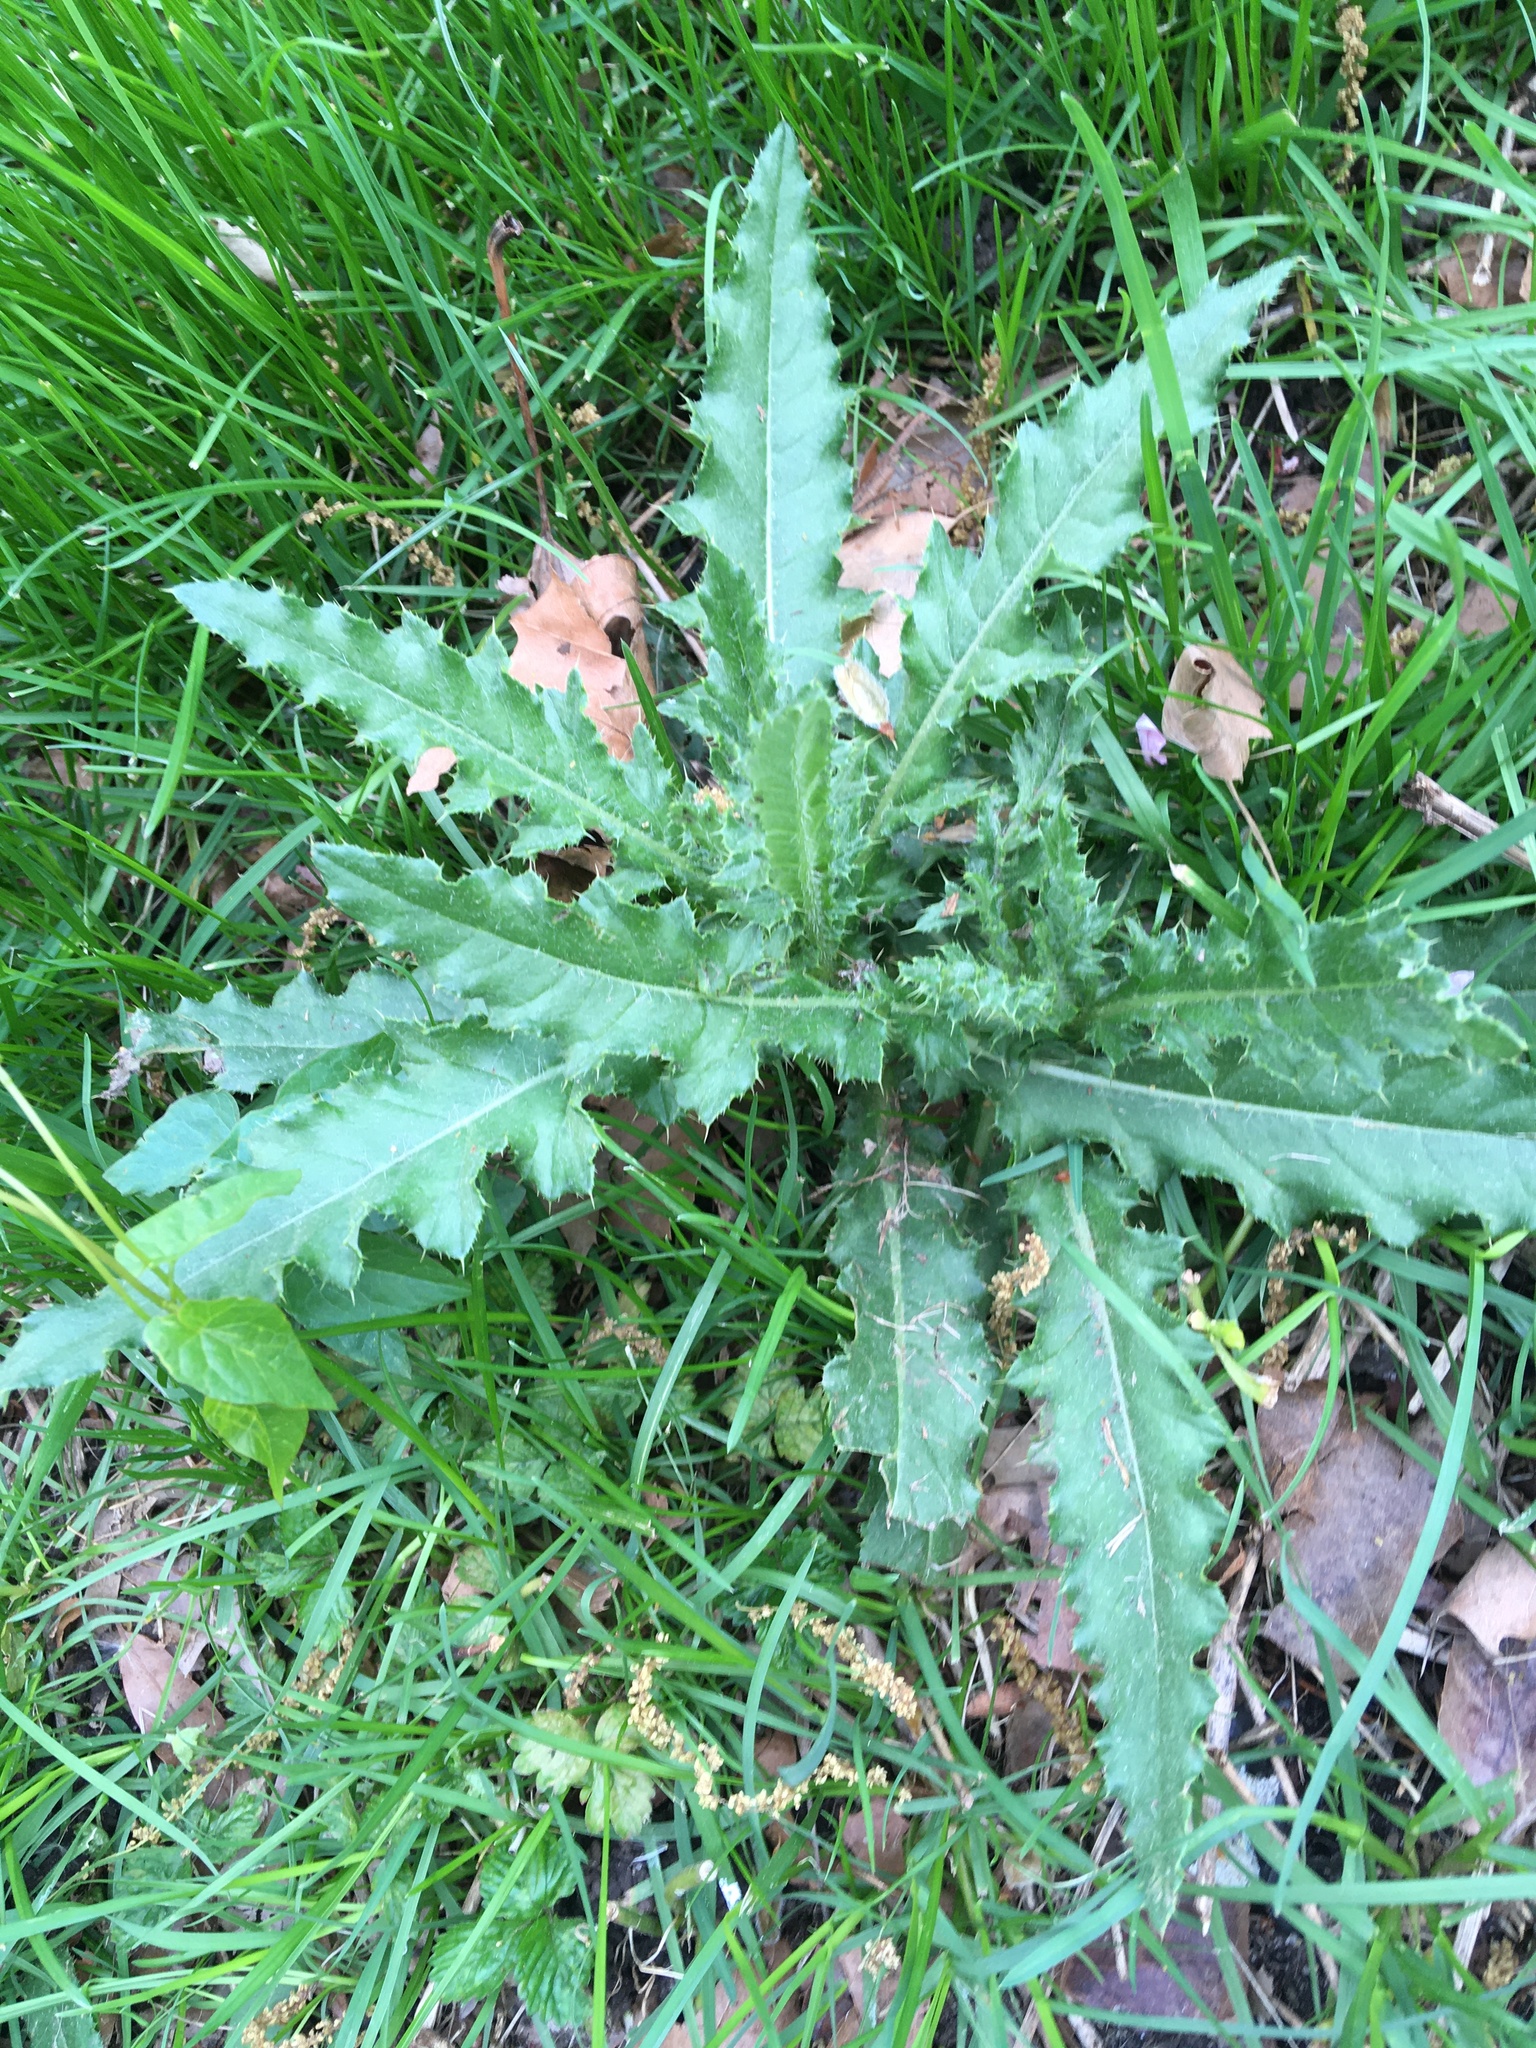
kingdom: Plantae
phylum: Tracheophyta
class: Magnoliopsida
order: Asterales
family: Asteraceae
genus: Cirsium
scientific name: Cirsium arvense
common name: Creeping thistle
